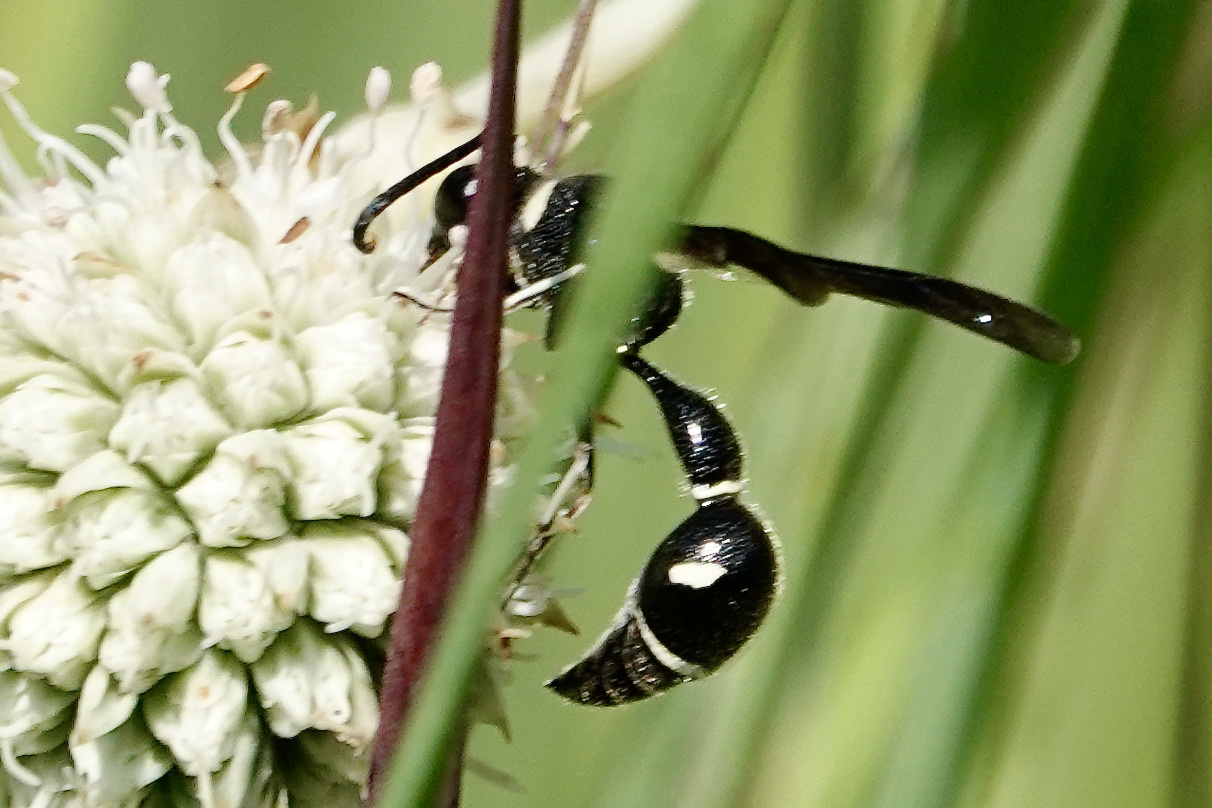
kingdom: Animalia
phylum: Arthropoda
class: Insecta
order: Hymenoptera
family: Vespidae
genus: Eumenes
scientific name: Eumenes fraternus
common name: Fraternal potter wasp
